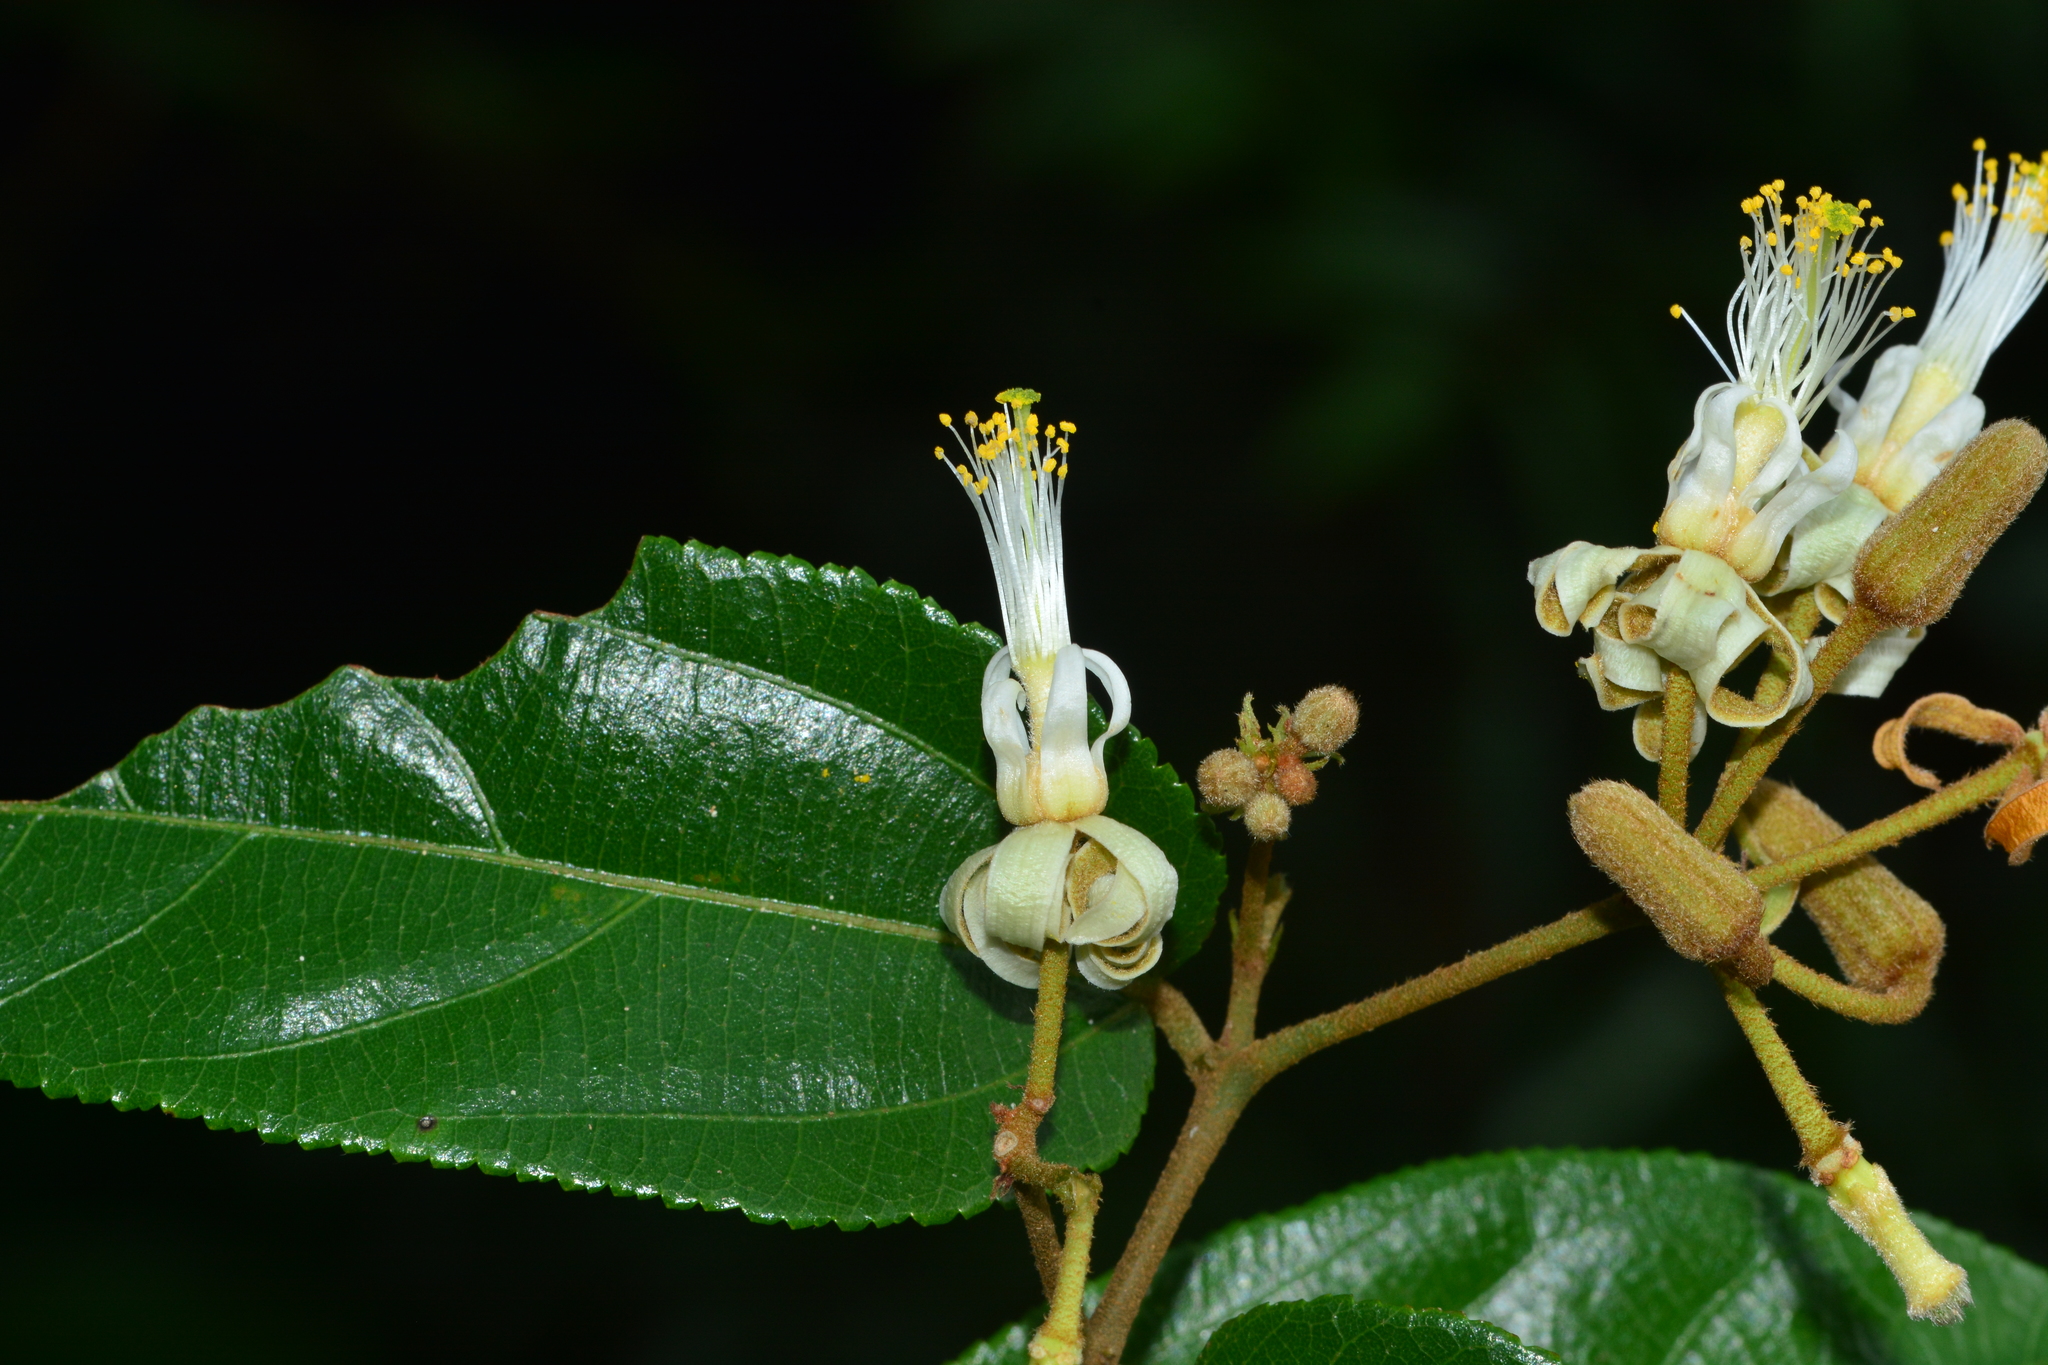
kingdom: Plantae
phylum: Tracheophyta
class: Magnoliopsida
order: Malvales
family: Malvaceae
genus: Grewia
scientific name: Grewia umbellifera
